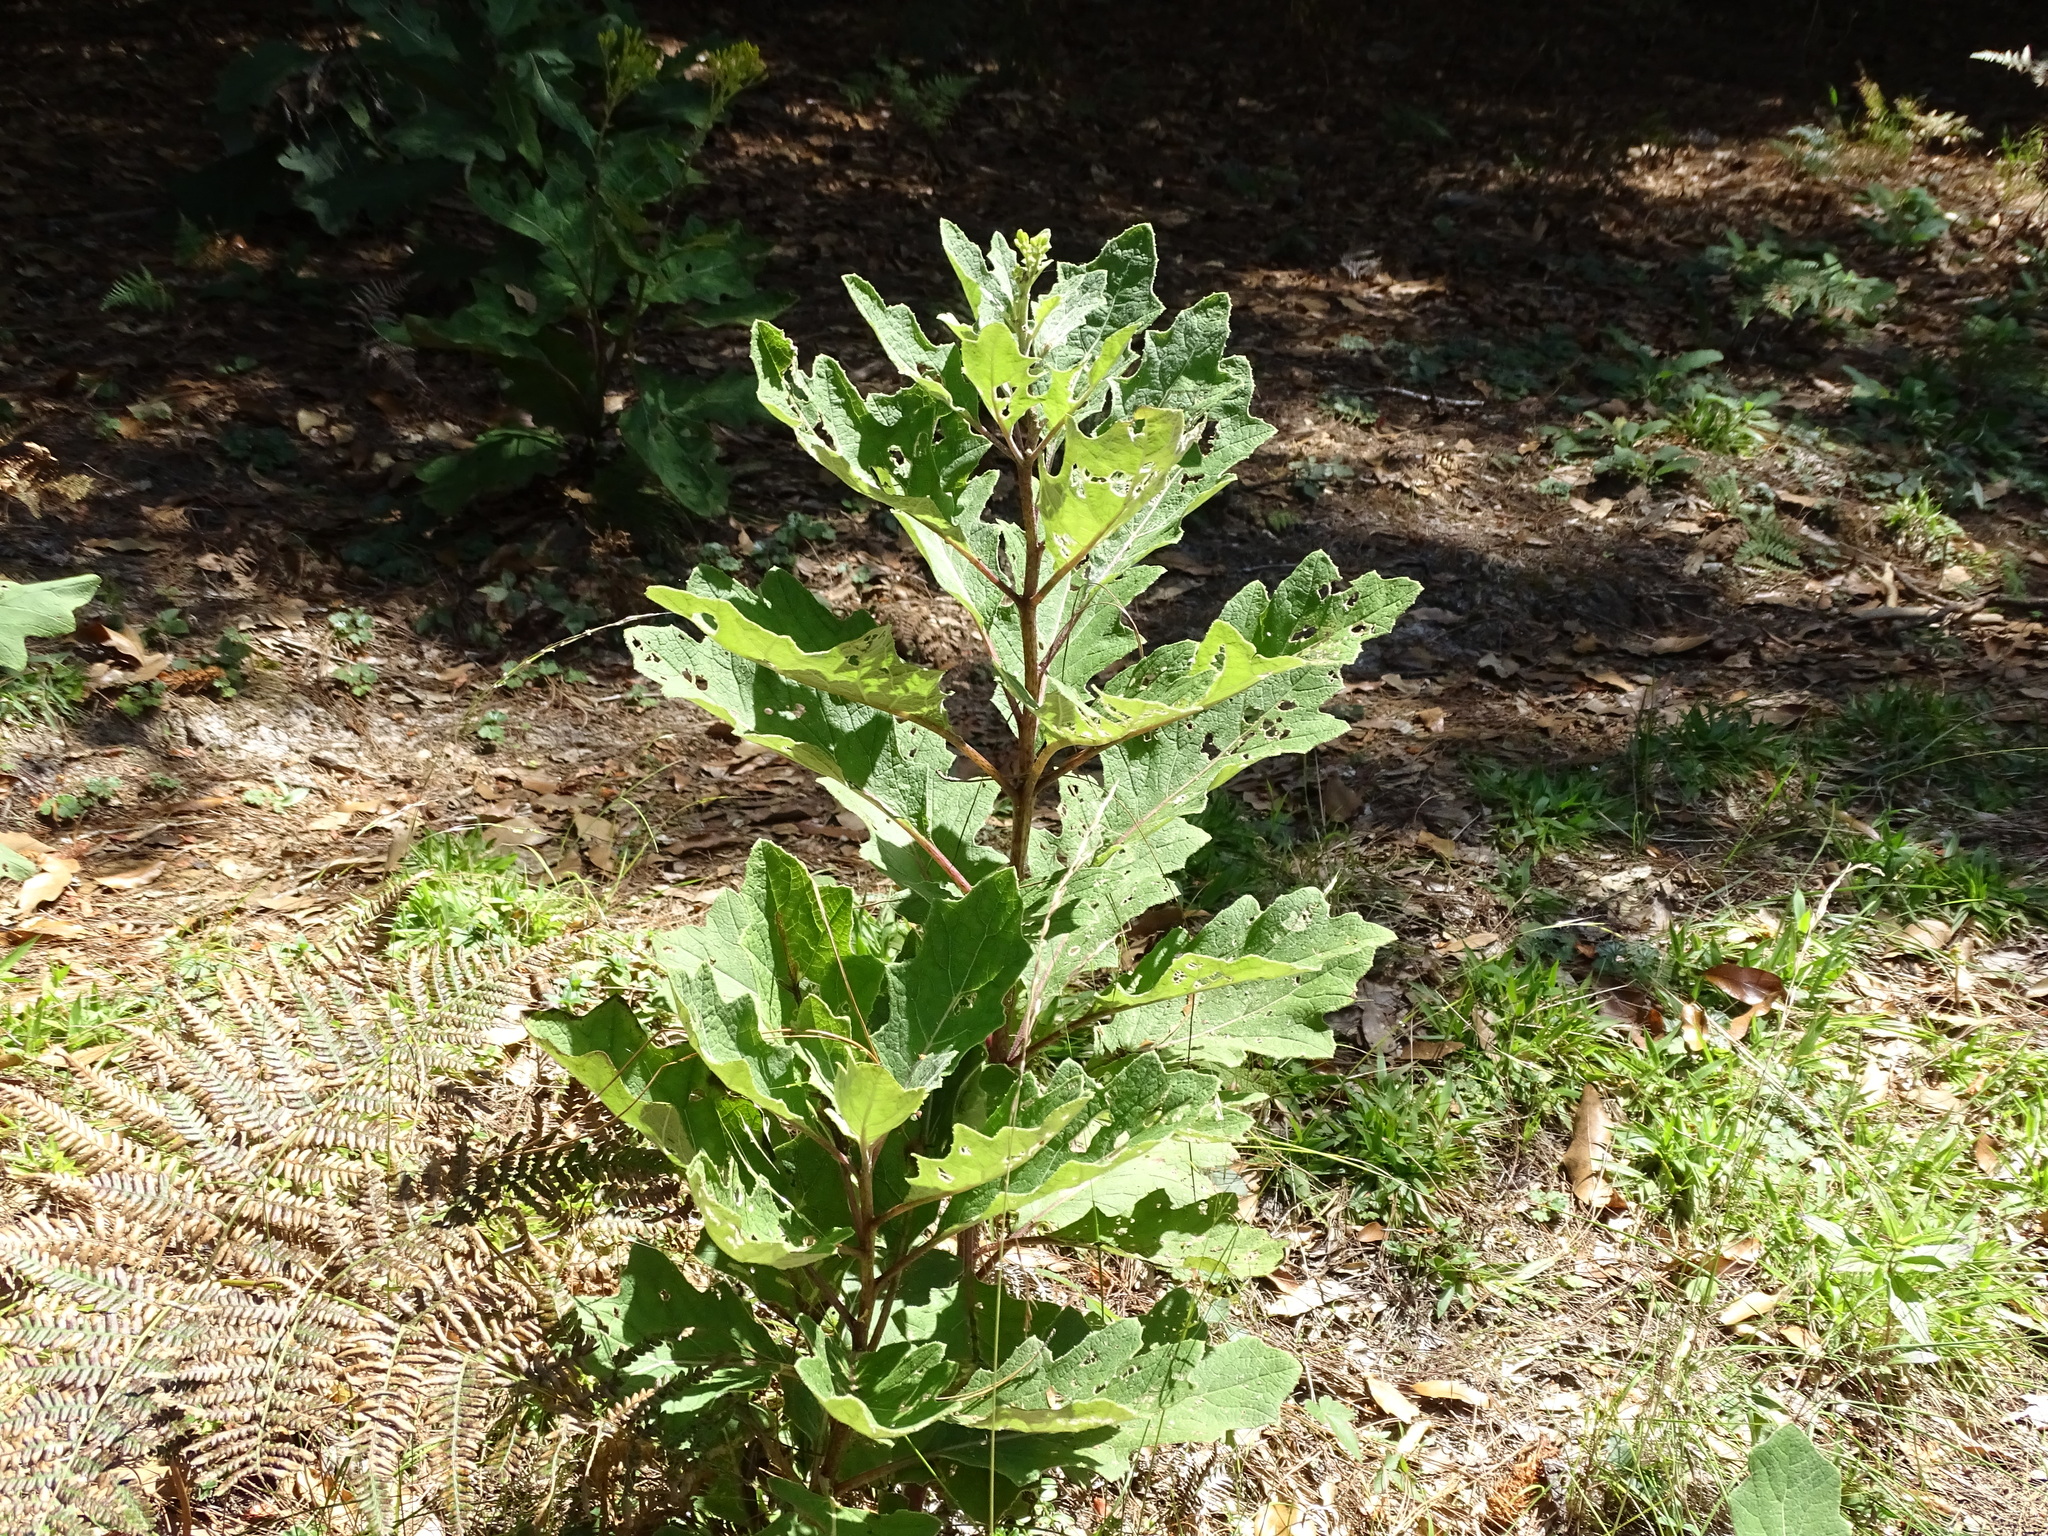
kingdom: Plantae
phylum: Tracheophyta
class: Magnoliopsida
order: Asterales
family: Asteraceae
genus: Roldana
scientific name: Roldana candicans
